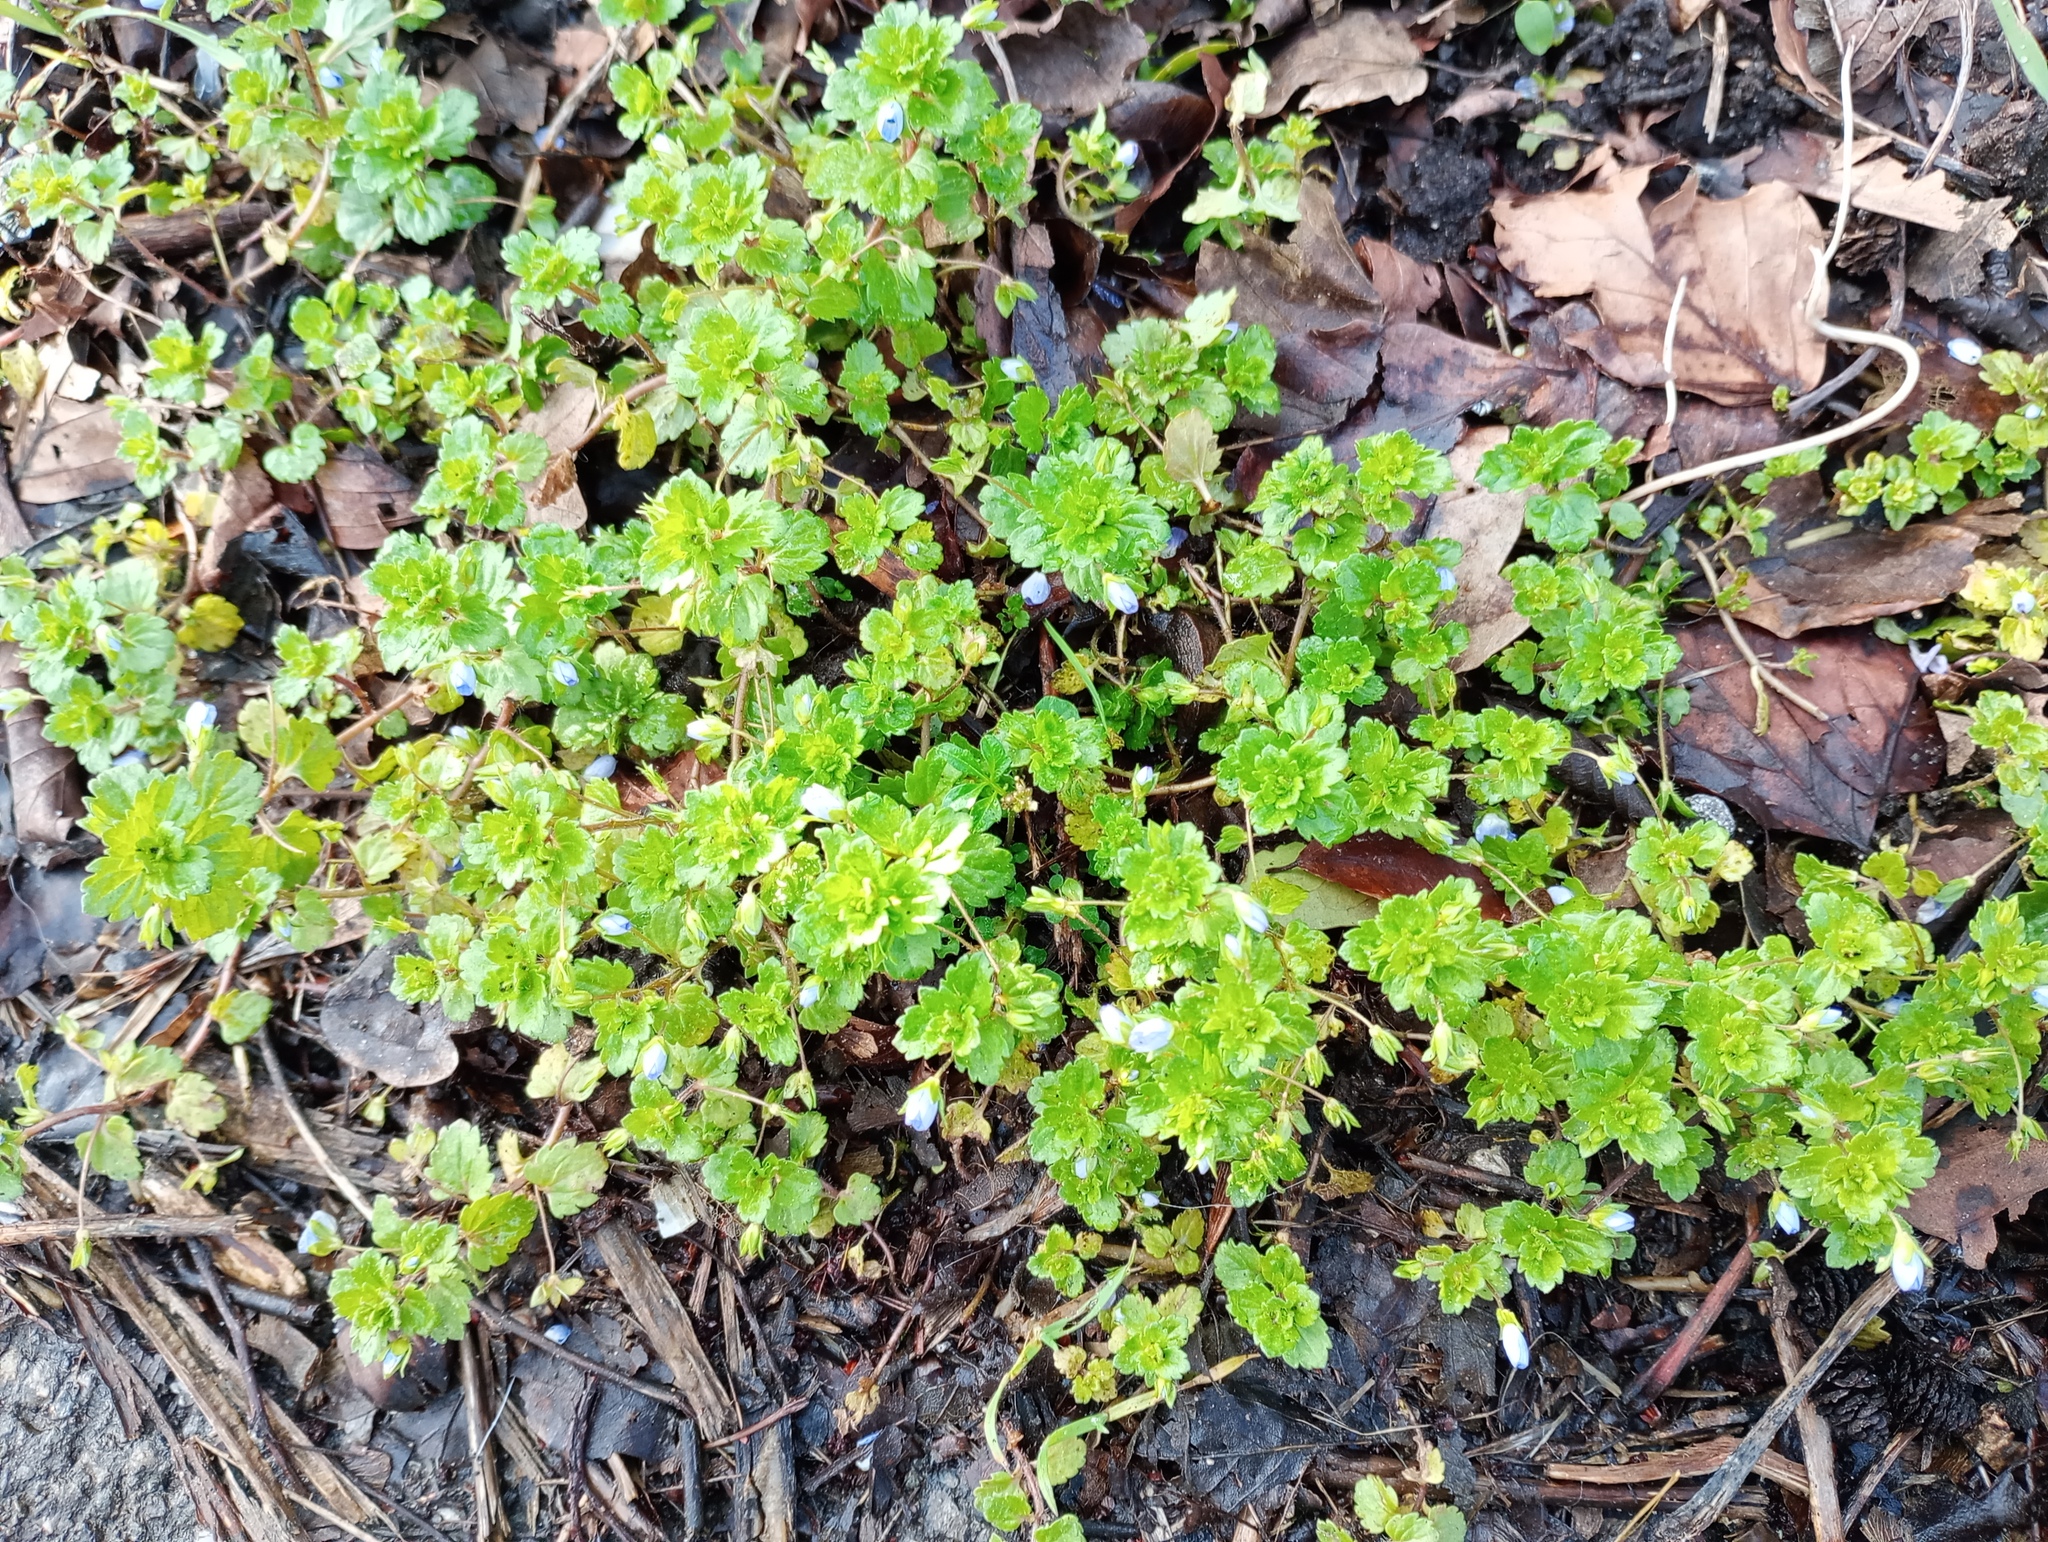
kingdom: Plantae
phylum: Tracheophyta
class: Magnoliopsida
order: Lamiales
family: Plantaginaceae
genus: Veronica
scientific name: Veronica persica
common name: Common field-speedwell
